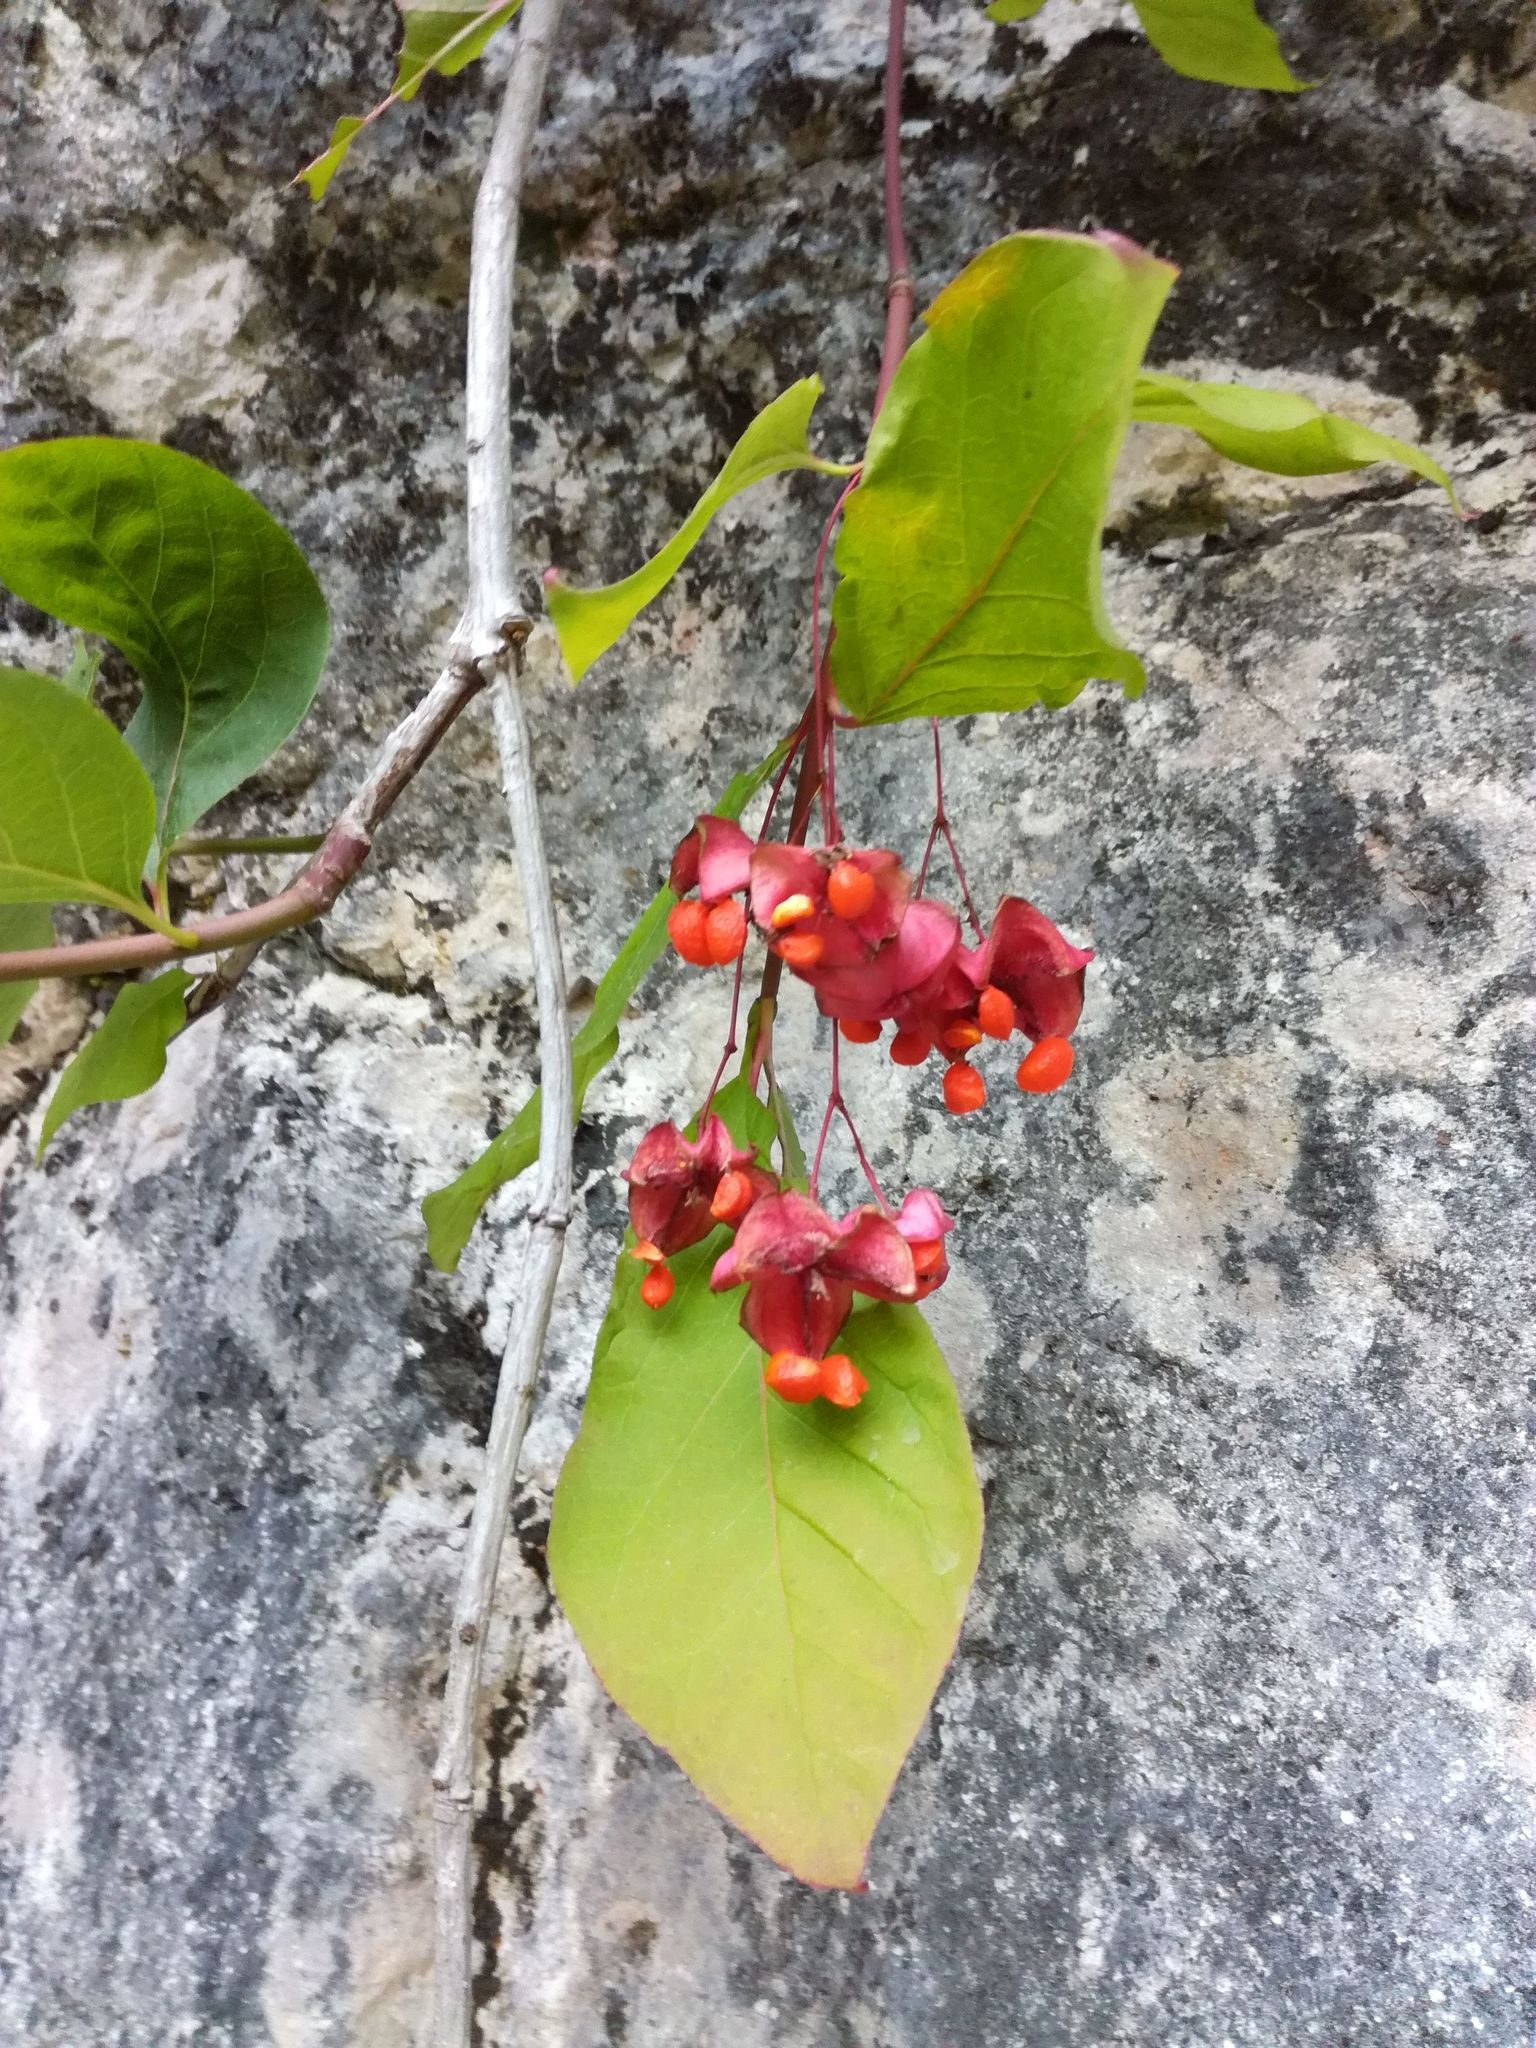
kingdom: Plantae
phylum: Tracheophyta
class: Magnoliopsida
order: Celastrales
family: Celastraceae
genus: Euonymus
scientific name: Euonymus europaeus
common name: Spindle
